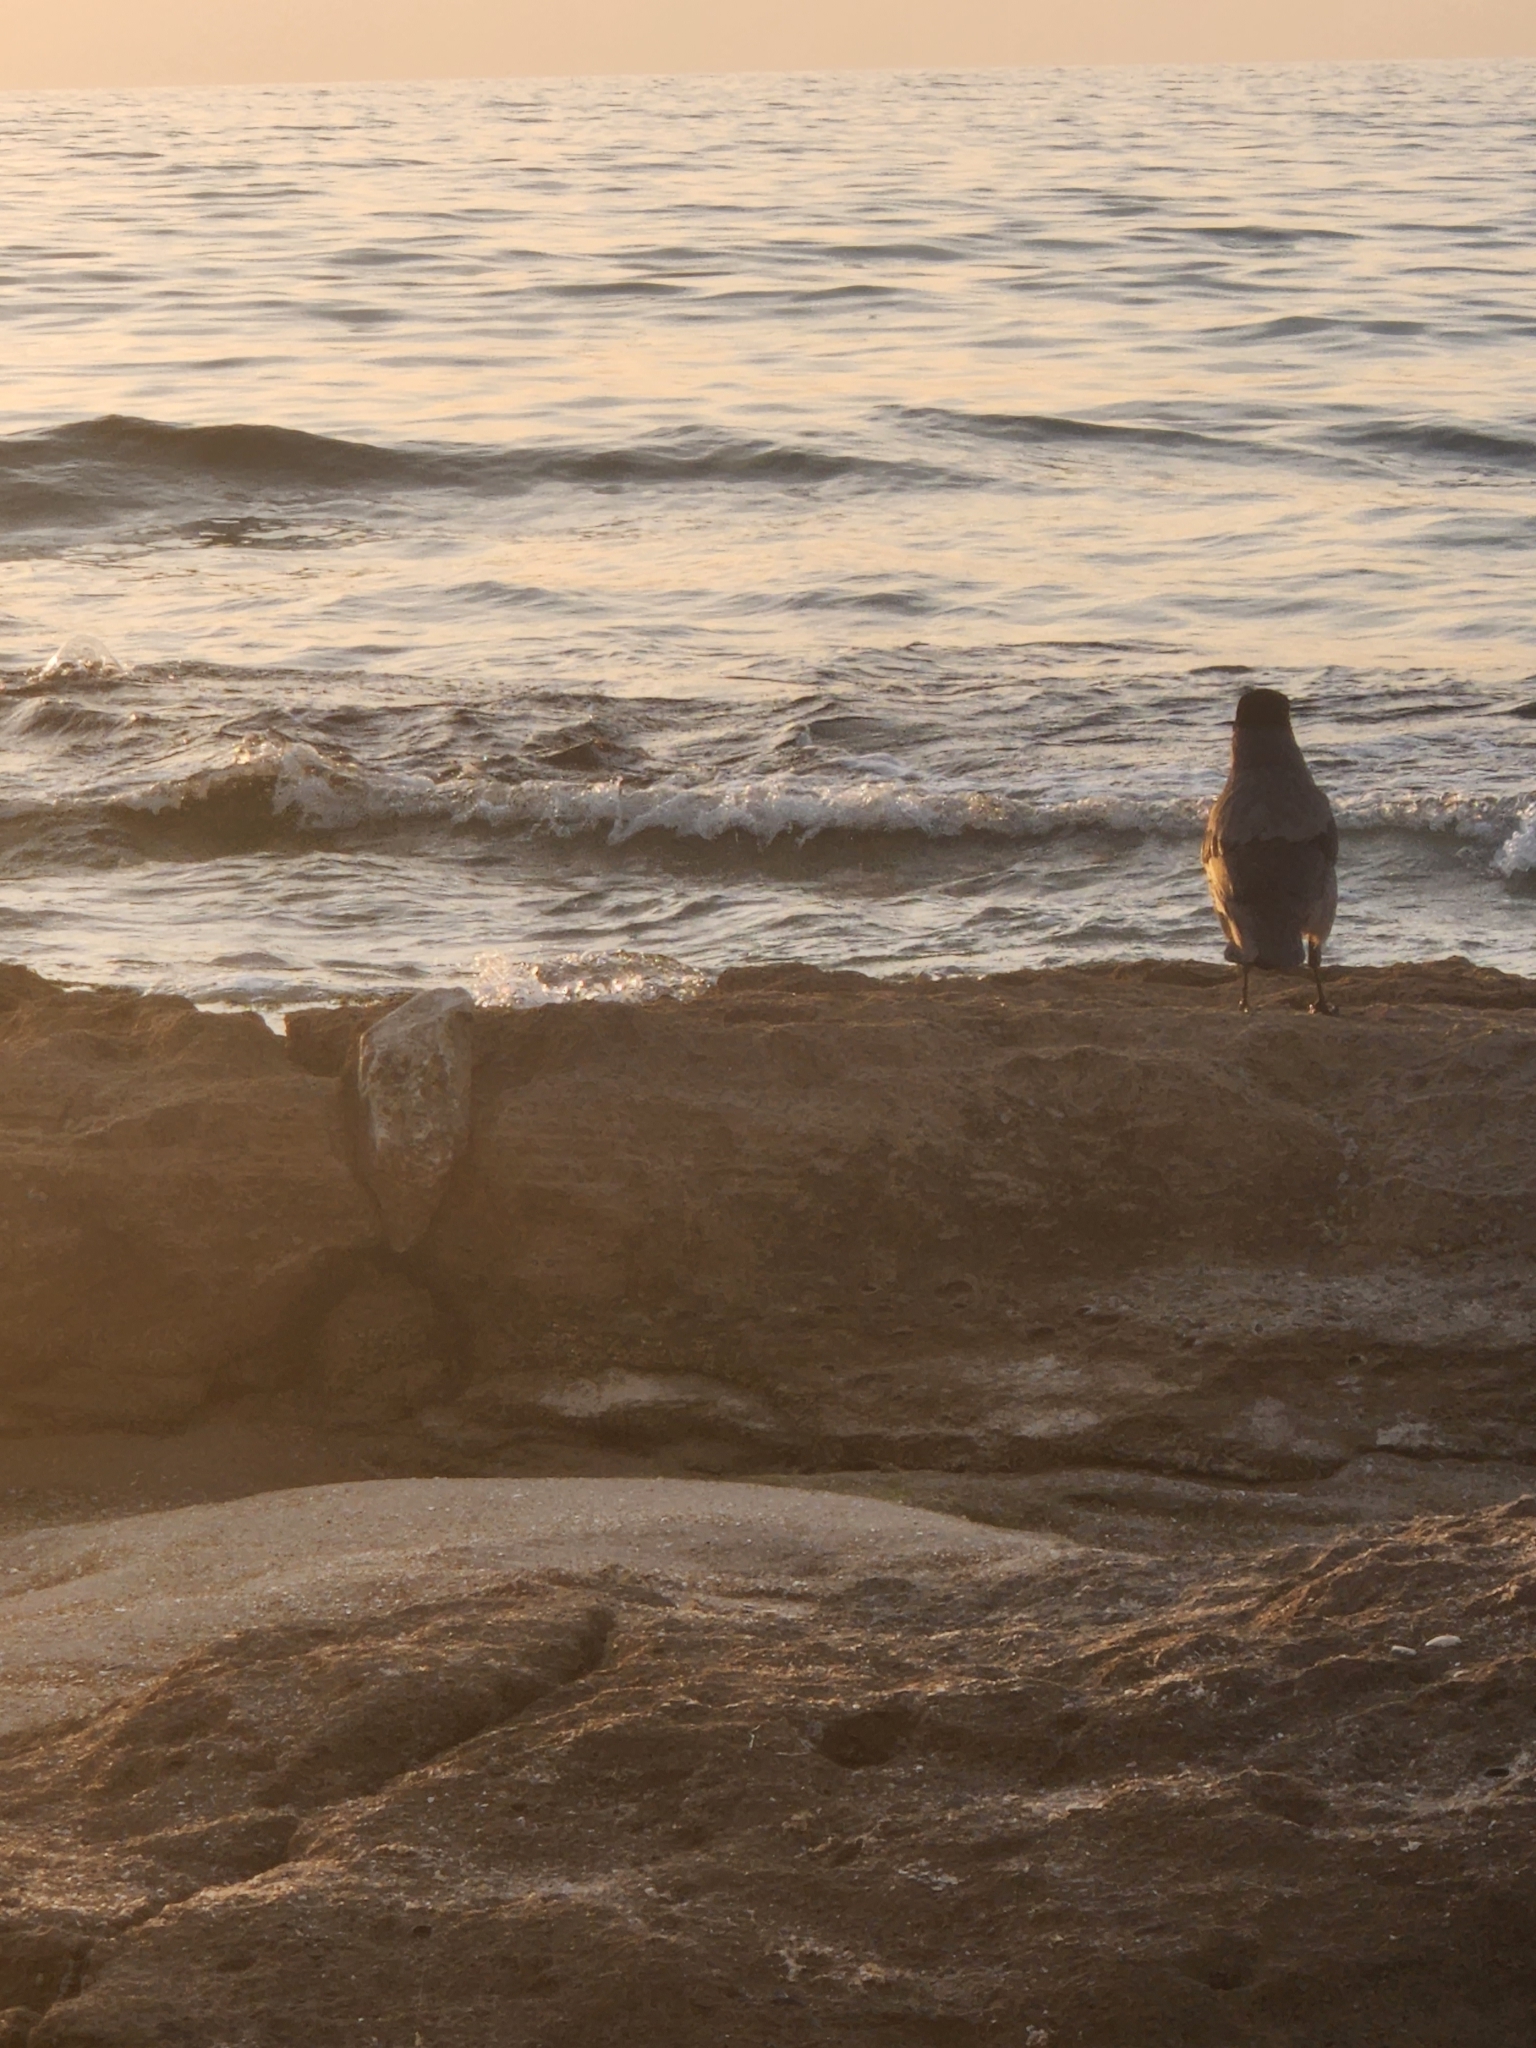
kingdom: Animalia
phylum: Chordata
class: Aves
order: Passeriformes
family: Corvidae
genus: Corvus
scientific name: Corvus cornix
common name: Hooded crow
